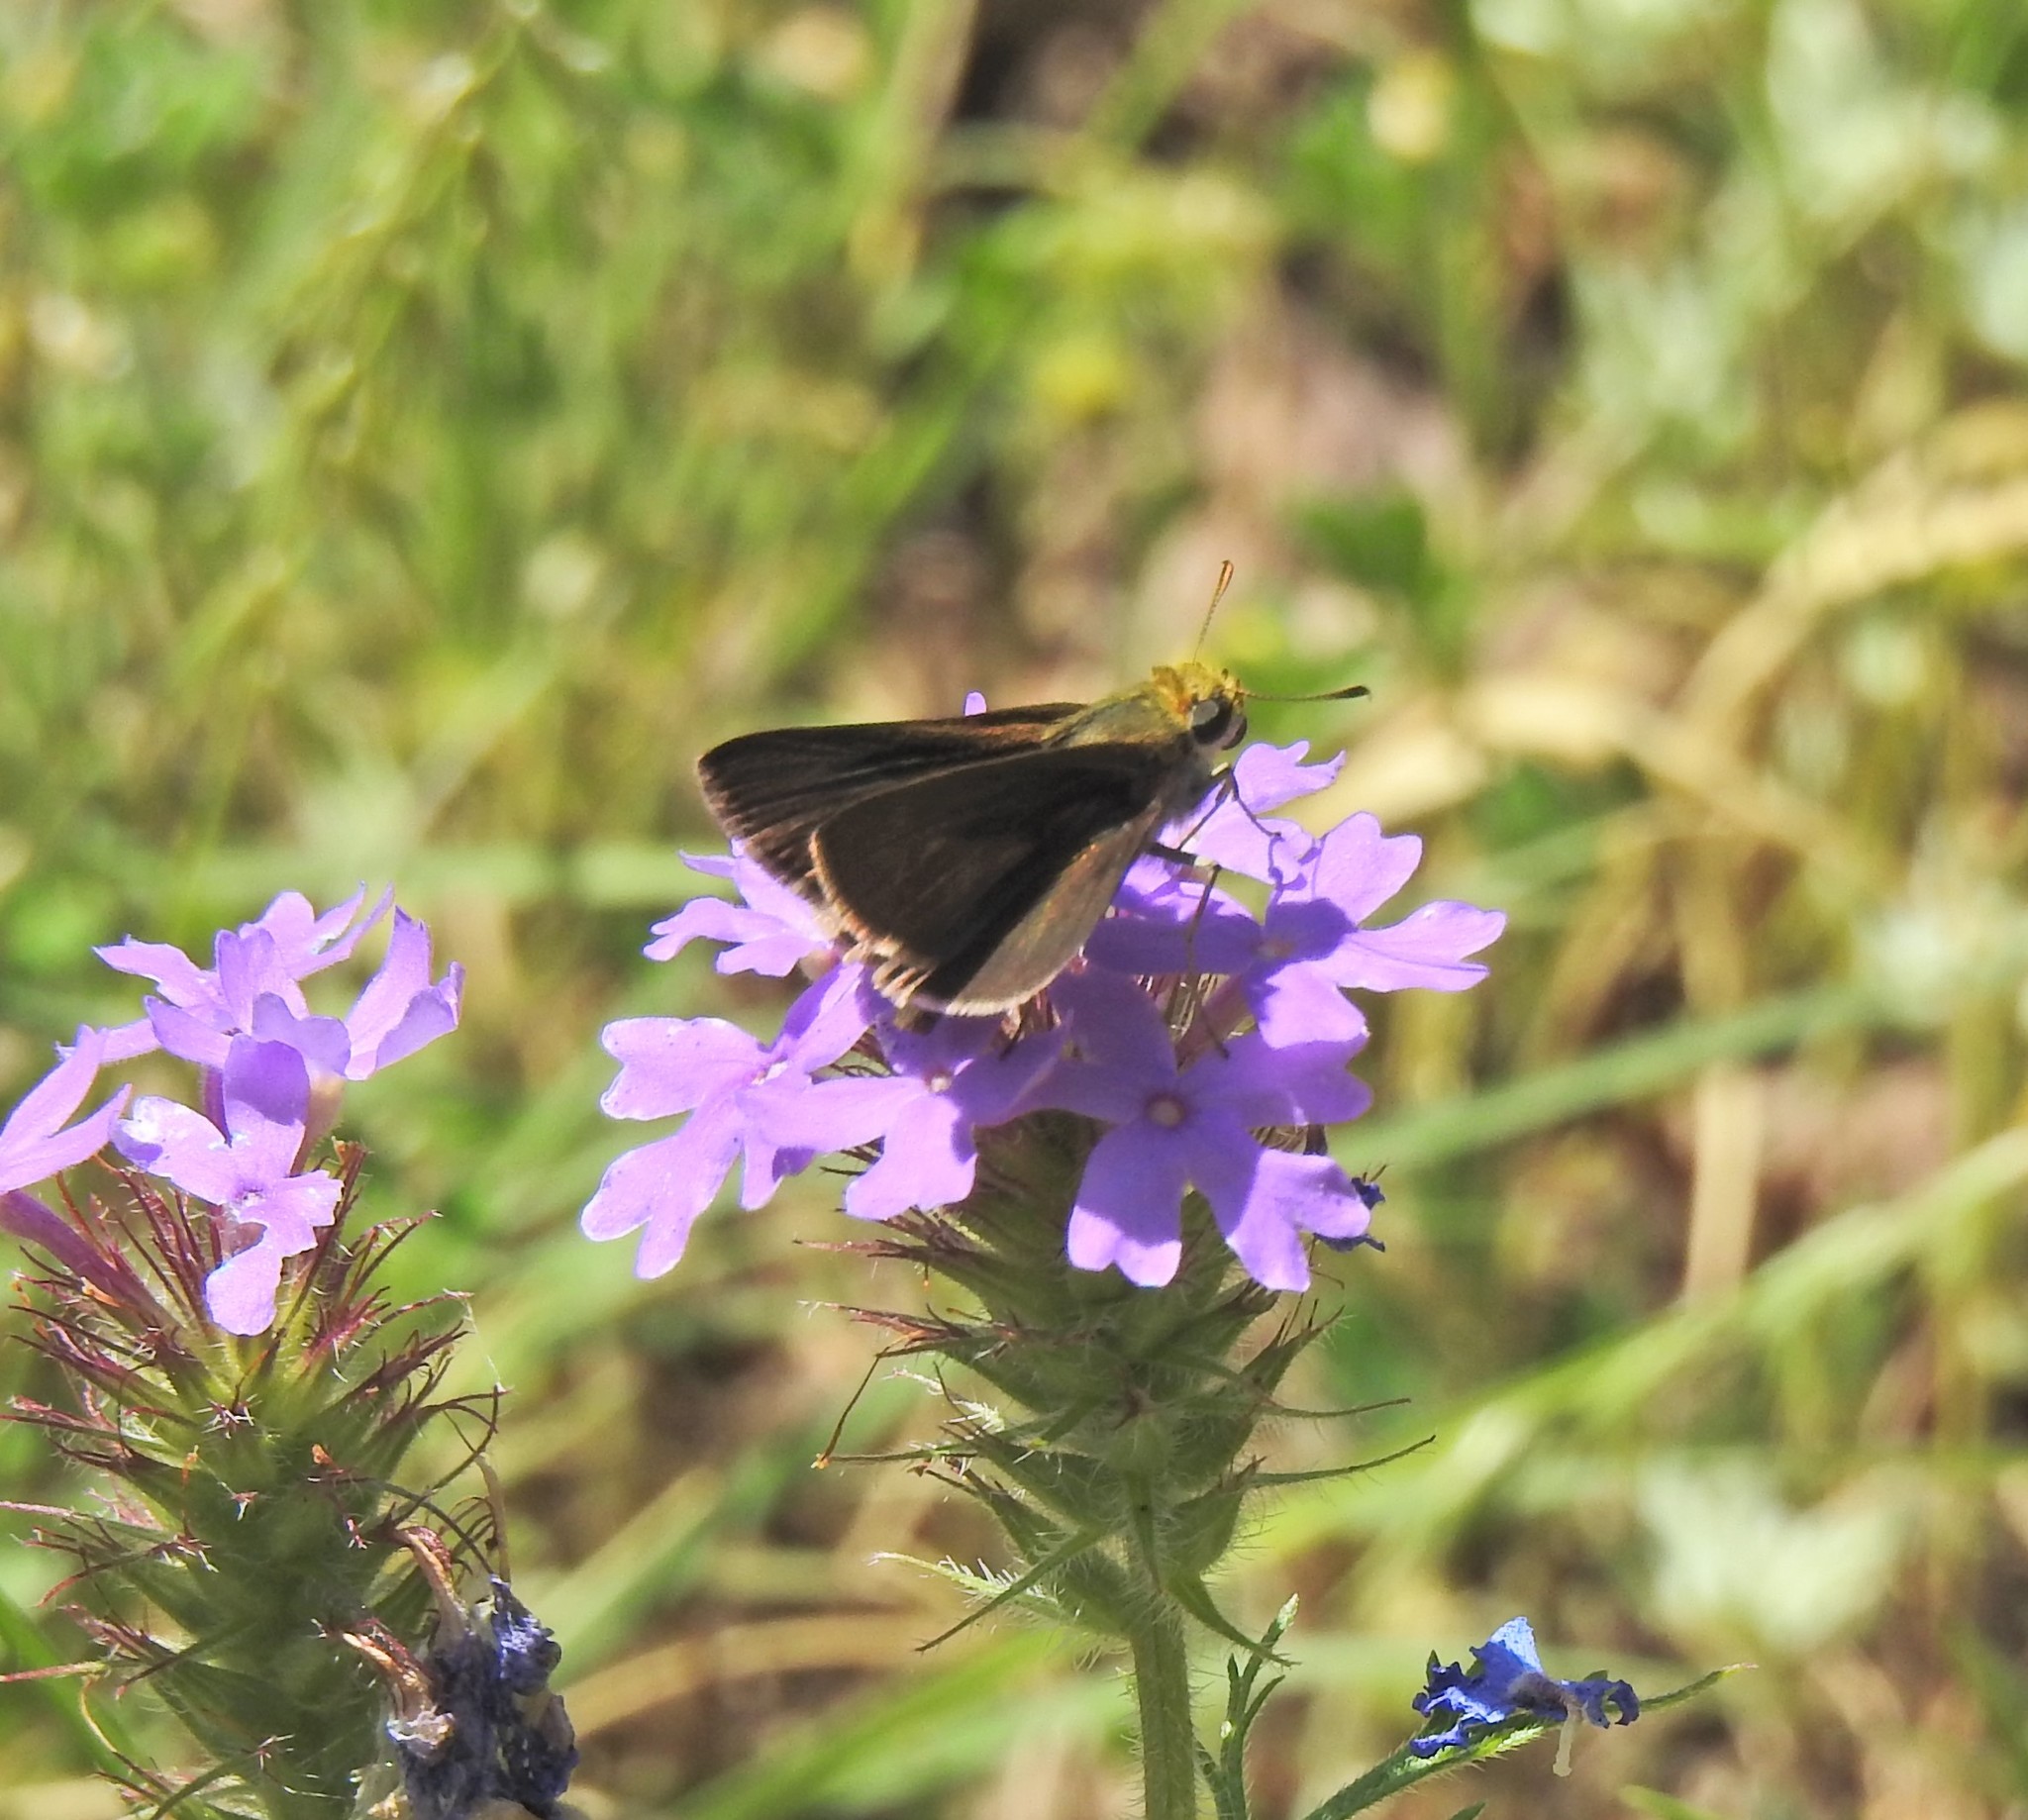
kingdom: Animalia
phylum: Arthropoda
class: Insecta
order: Lepidoptera
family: Hesperiidae
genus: Euphyes
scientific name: Euphyes vestris
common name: Dun skipper
